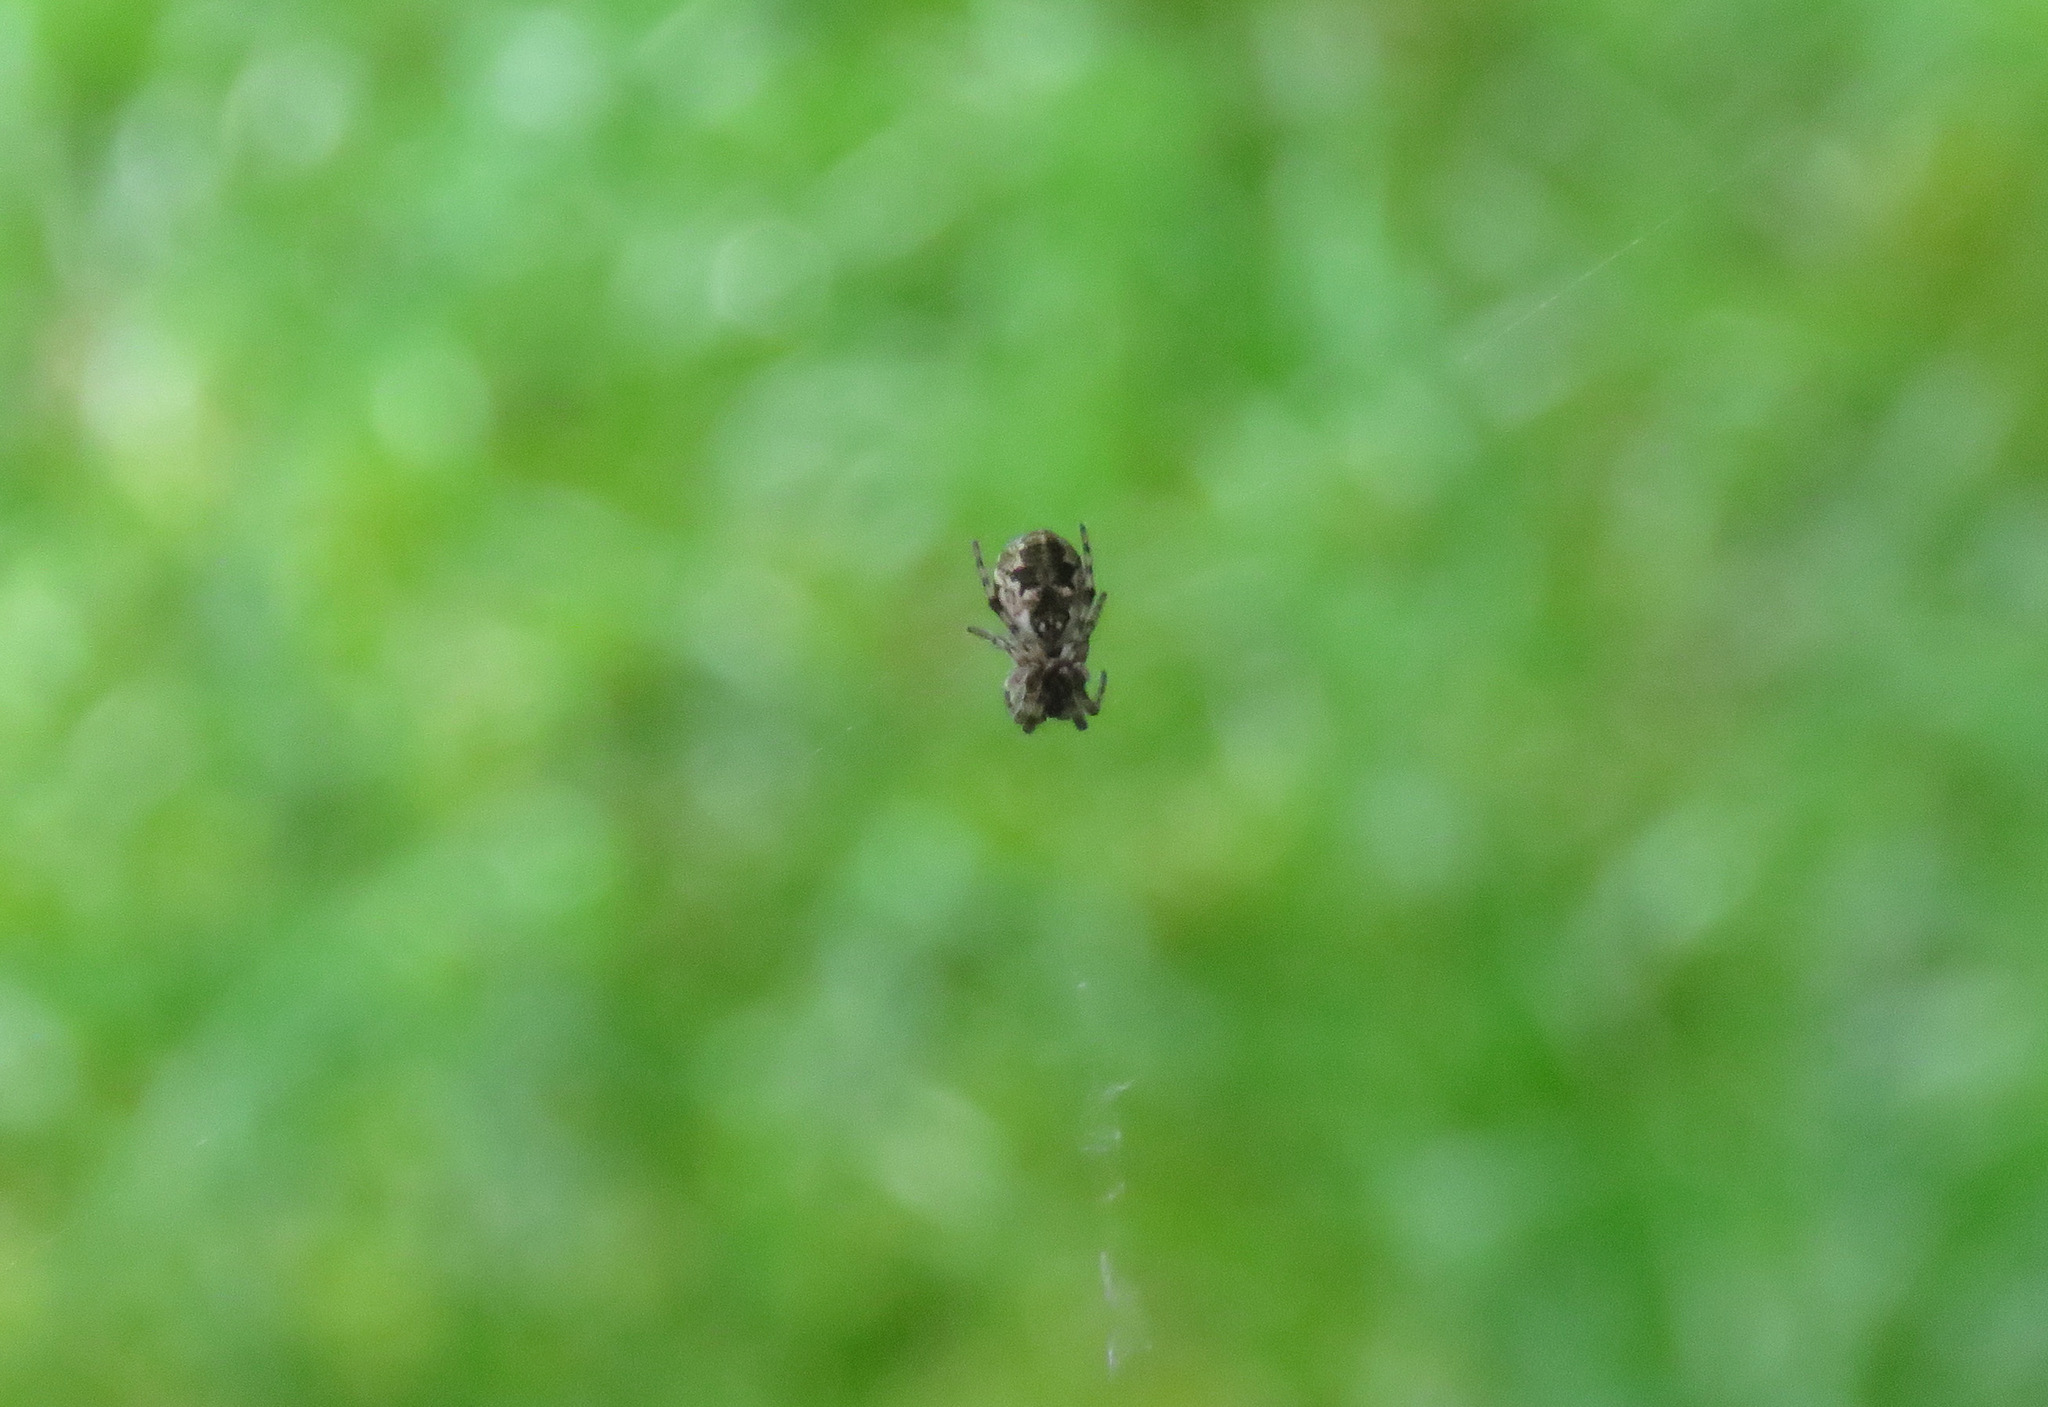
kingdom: Animalia
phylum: Arthropoda
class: Arachnida
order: Araneae
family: Araneidae
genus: Cyclosa
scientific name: Cyclosa conica
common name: Conical trashline orbweaver
